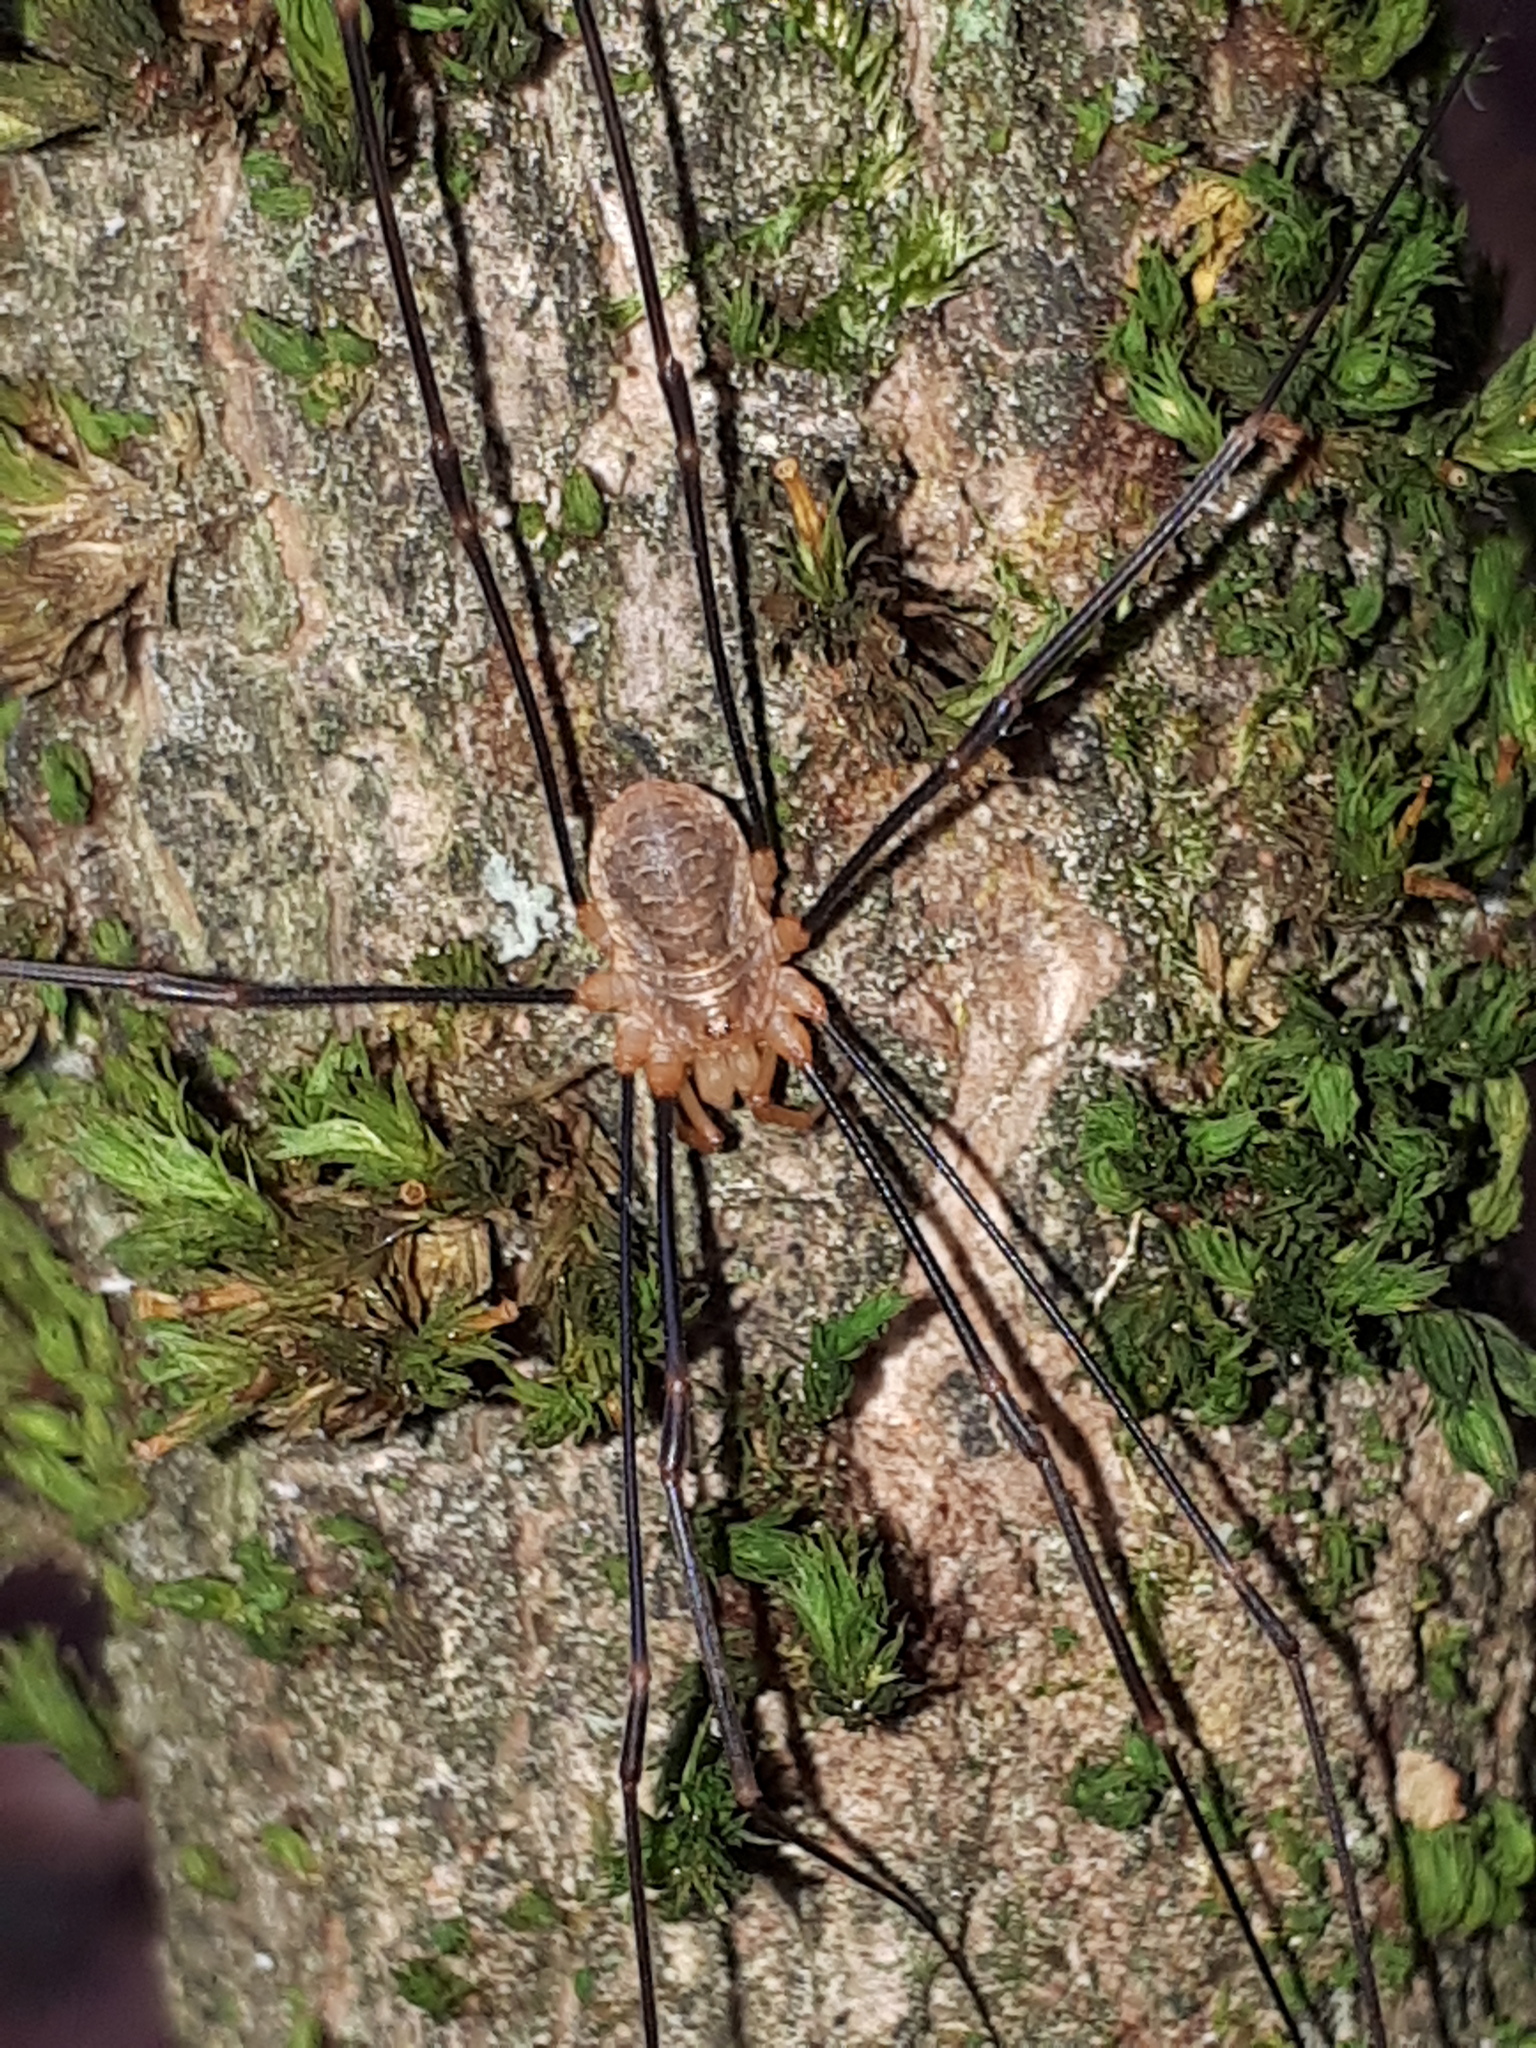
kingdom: Animalia
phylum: Arthropoda
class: Arachnida
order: Opiliones
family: Phalangiidae
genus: Opilio
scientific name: Opilio canestrinii
